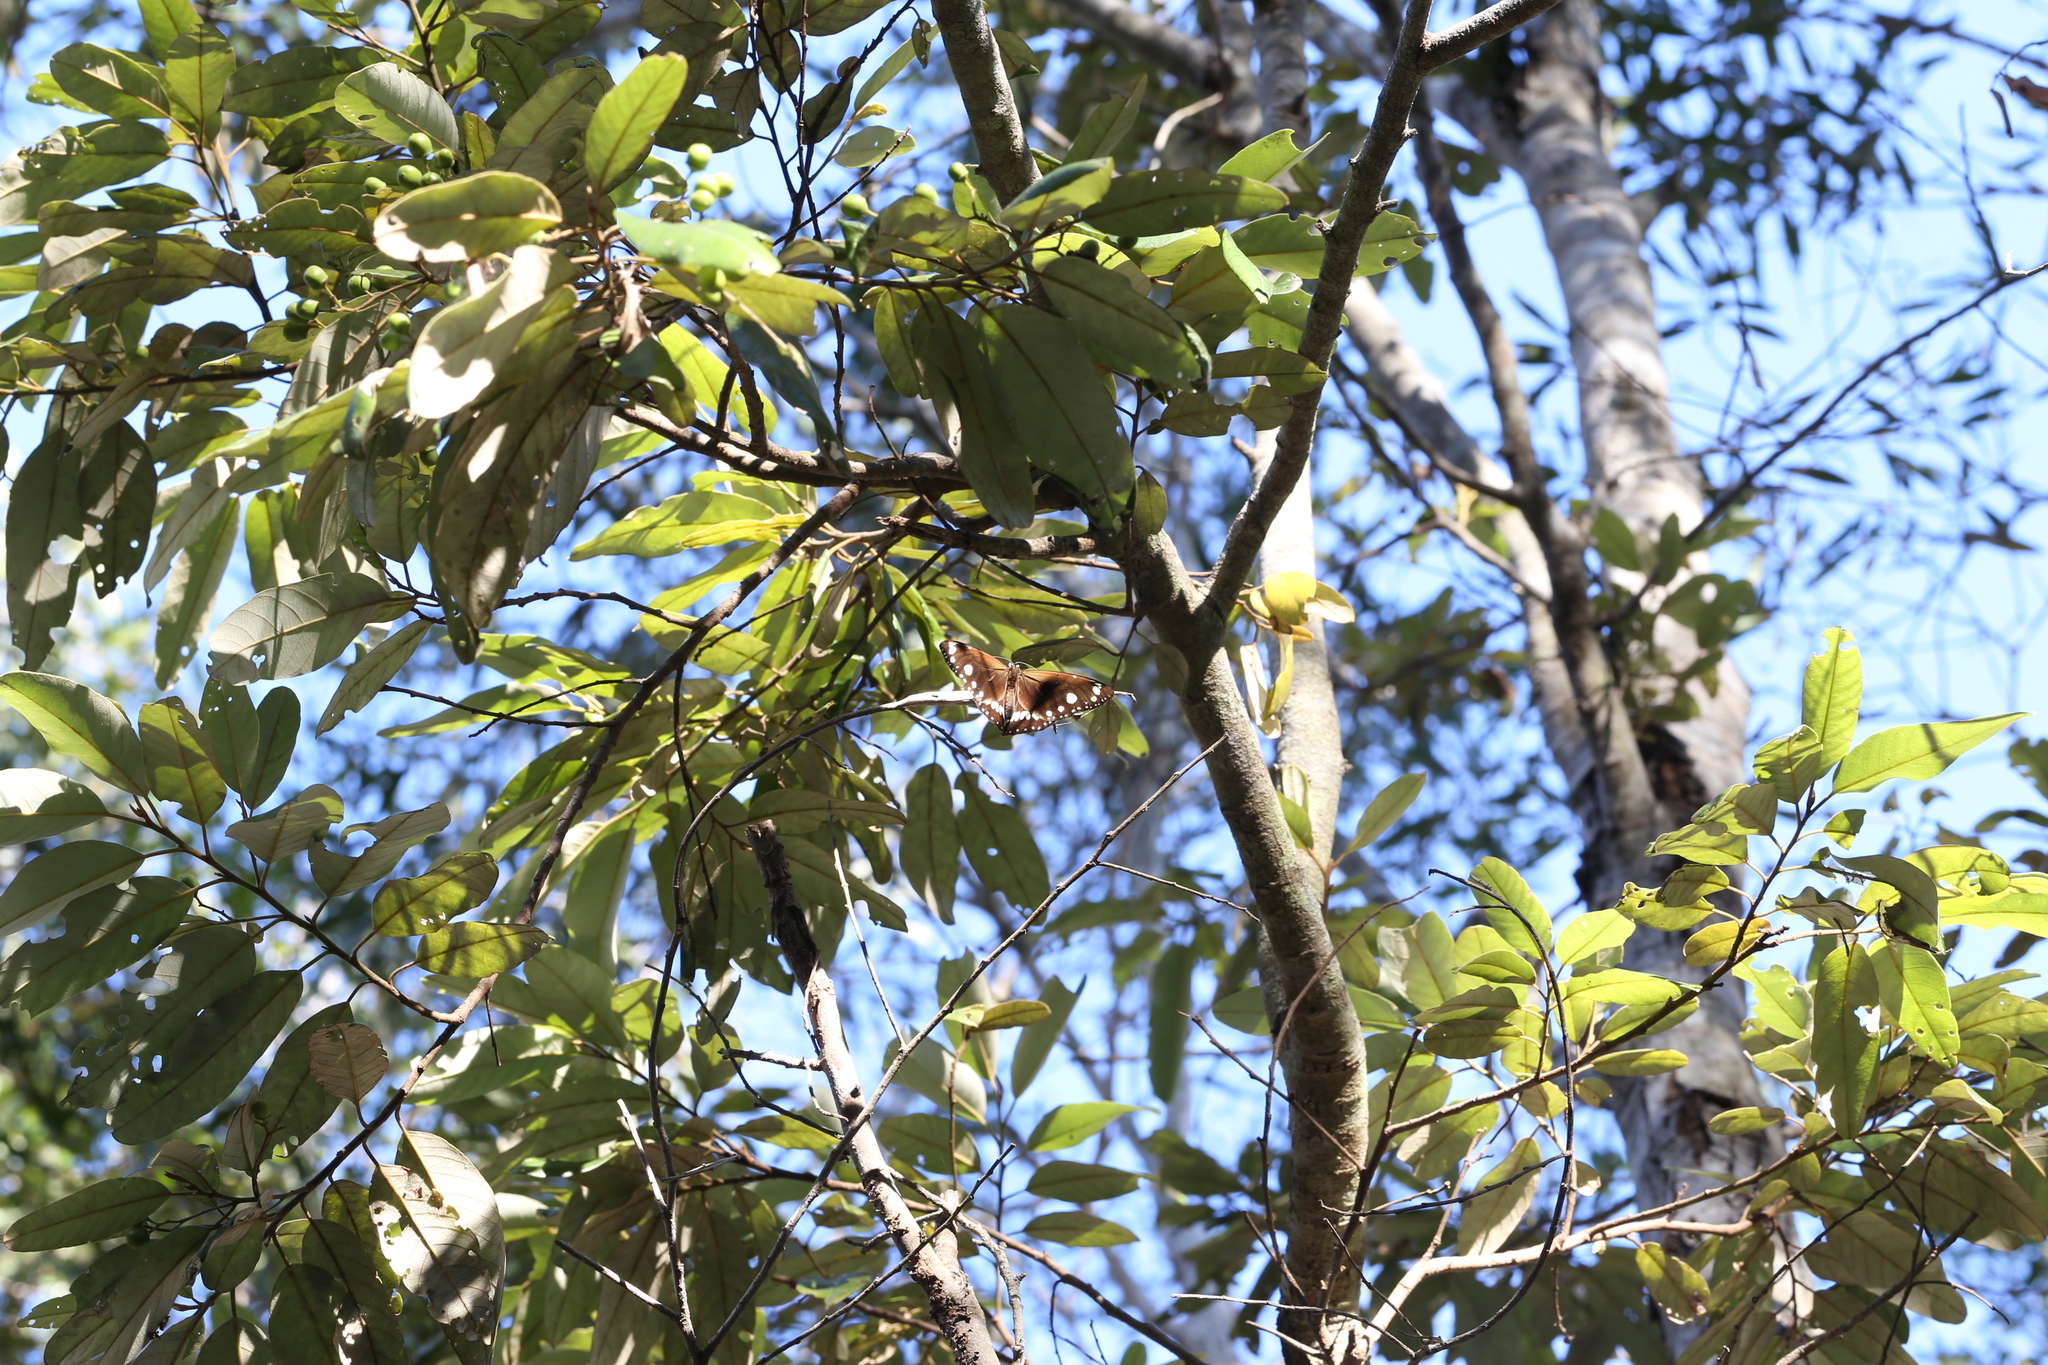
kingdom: Animalia
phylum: Arthropoda
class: Insecta
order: Lepidoptera
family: Nymphalidae
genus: Euploea
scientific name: Euploea core
